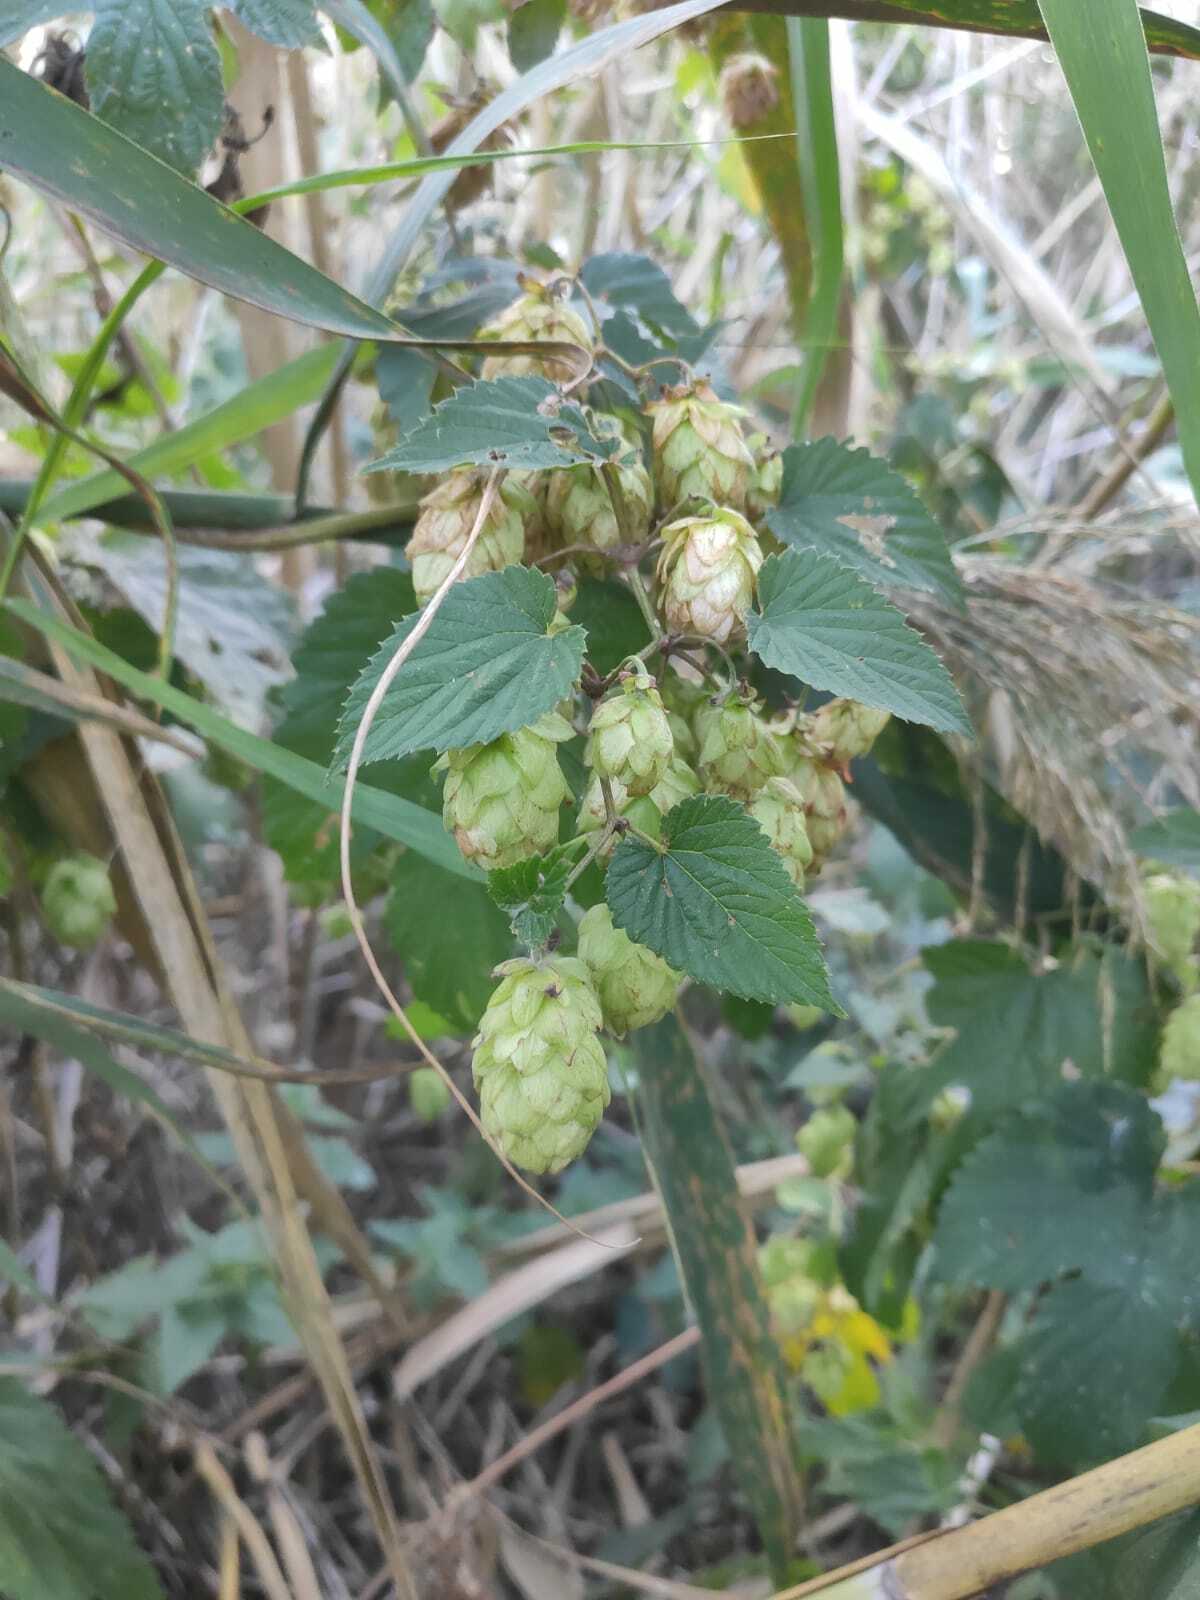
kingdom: Plantae
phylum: Tracheophyta
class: Magnoliopsida
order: Rosales
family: Cannabaceae
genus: Humulus
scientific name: Humulus lupulus
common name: Hop
